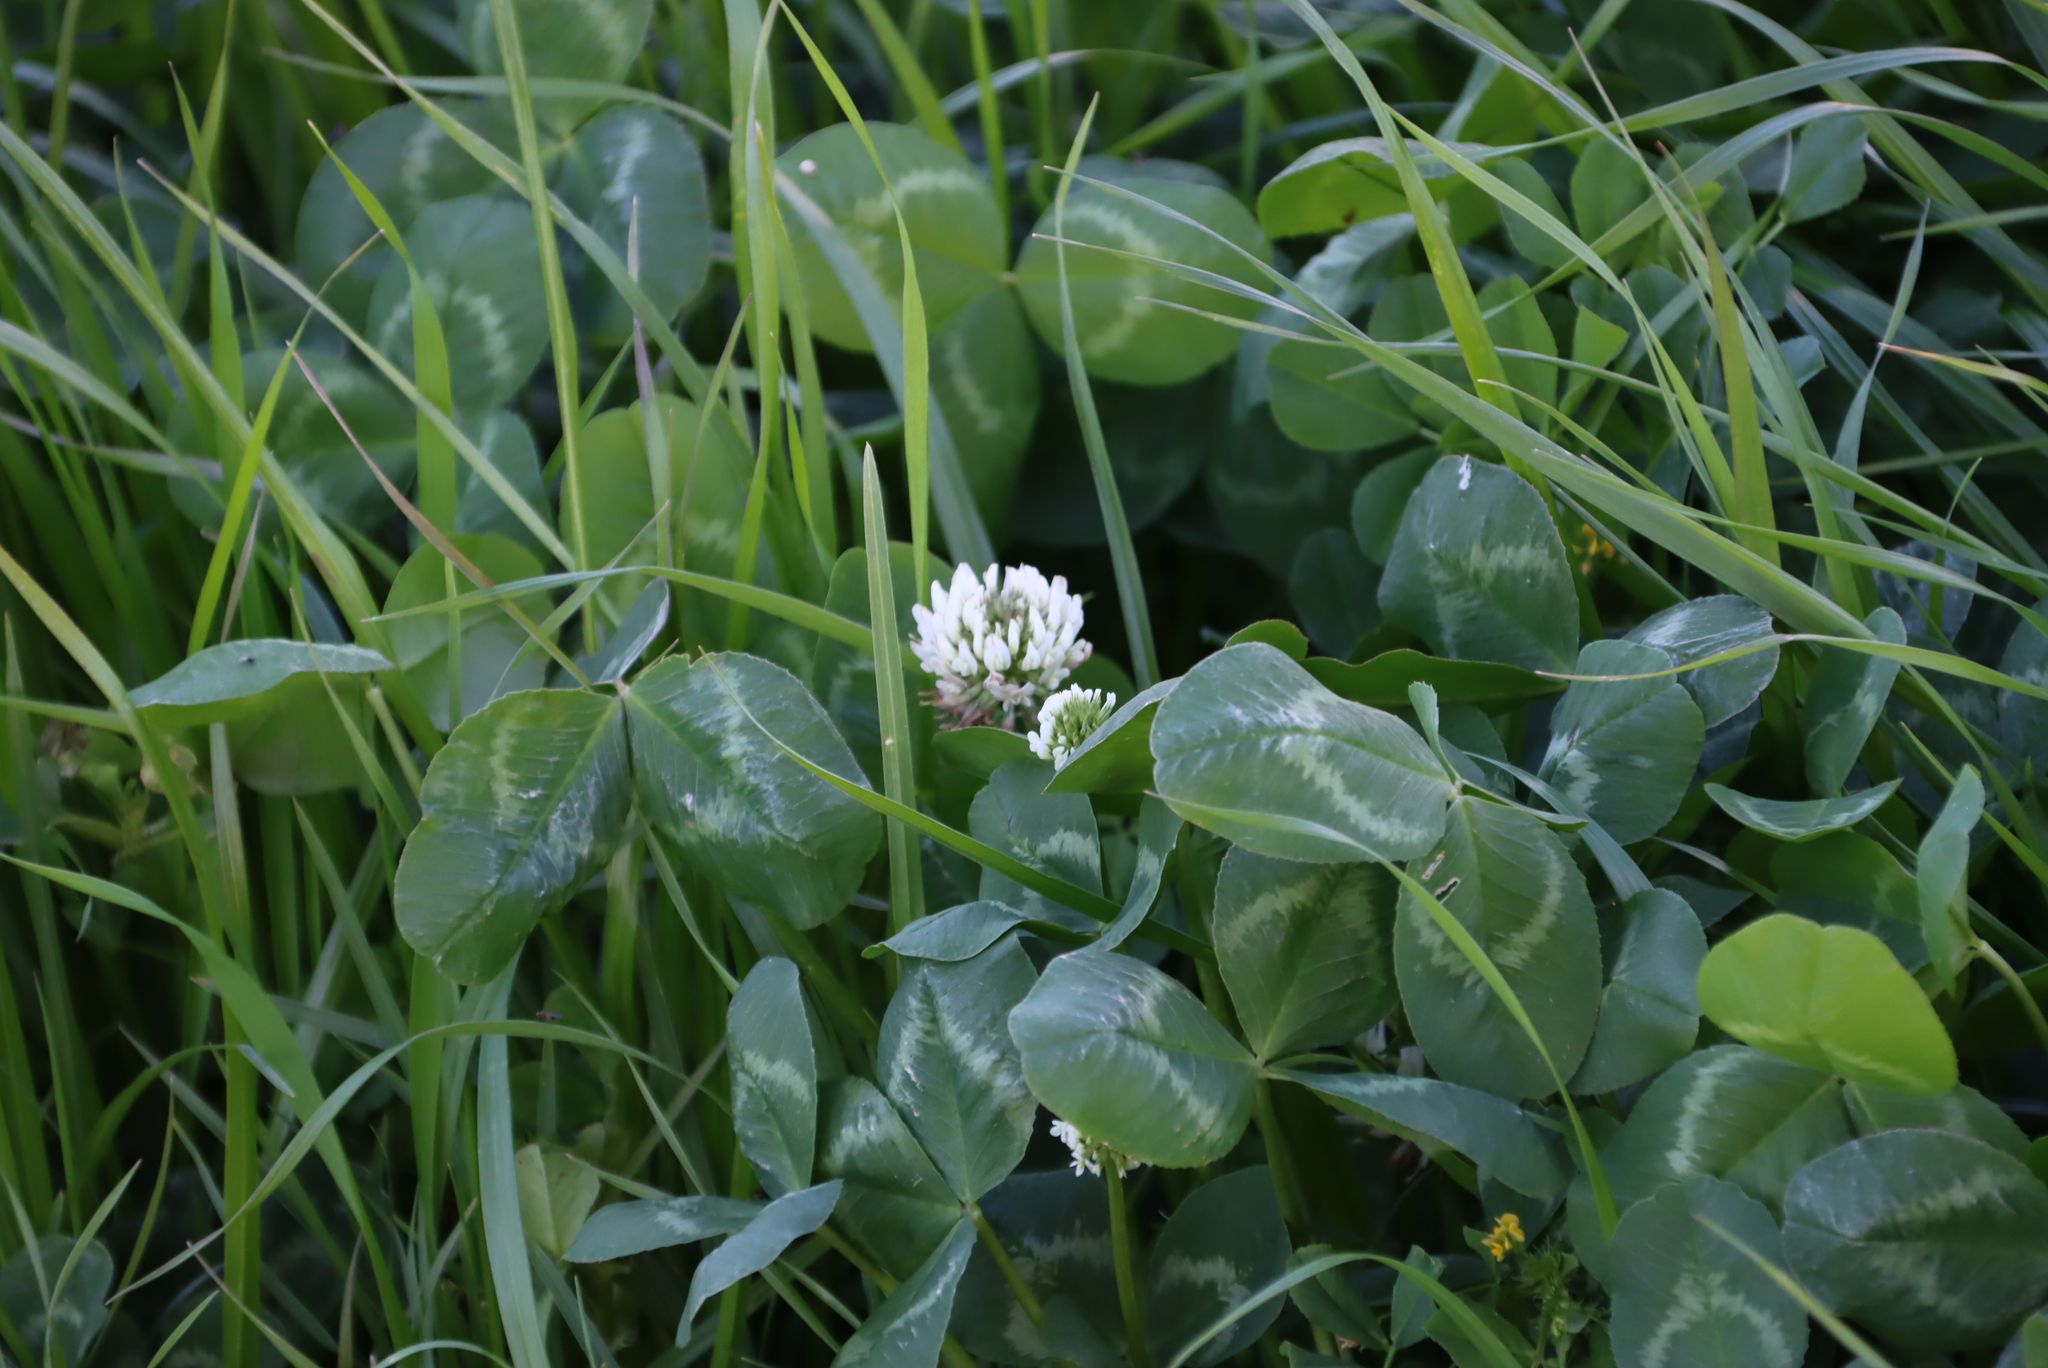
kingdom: Plantae
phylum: Tracheophyta
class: Magnoliopsida
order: Fabales
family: Fabaceae
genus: Trifolium
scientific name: Trifolium repens
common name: White clover
